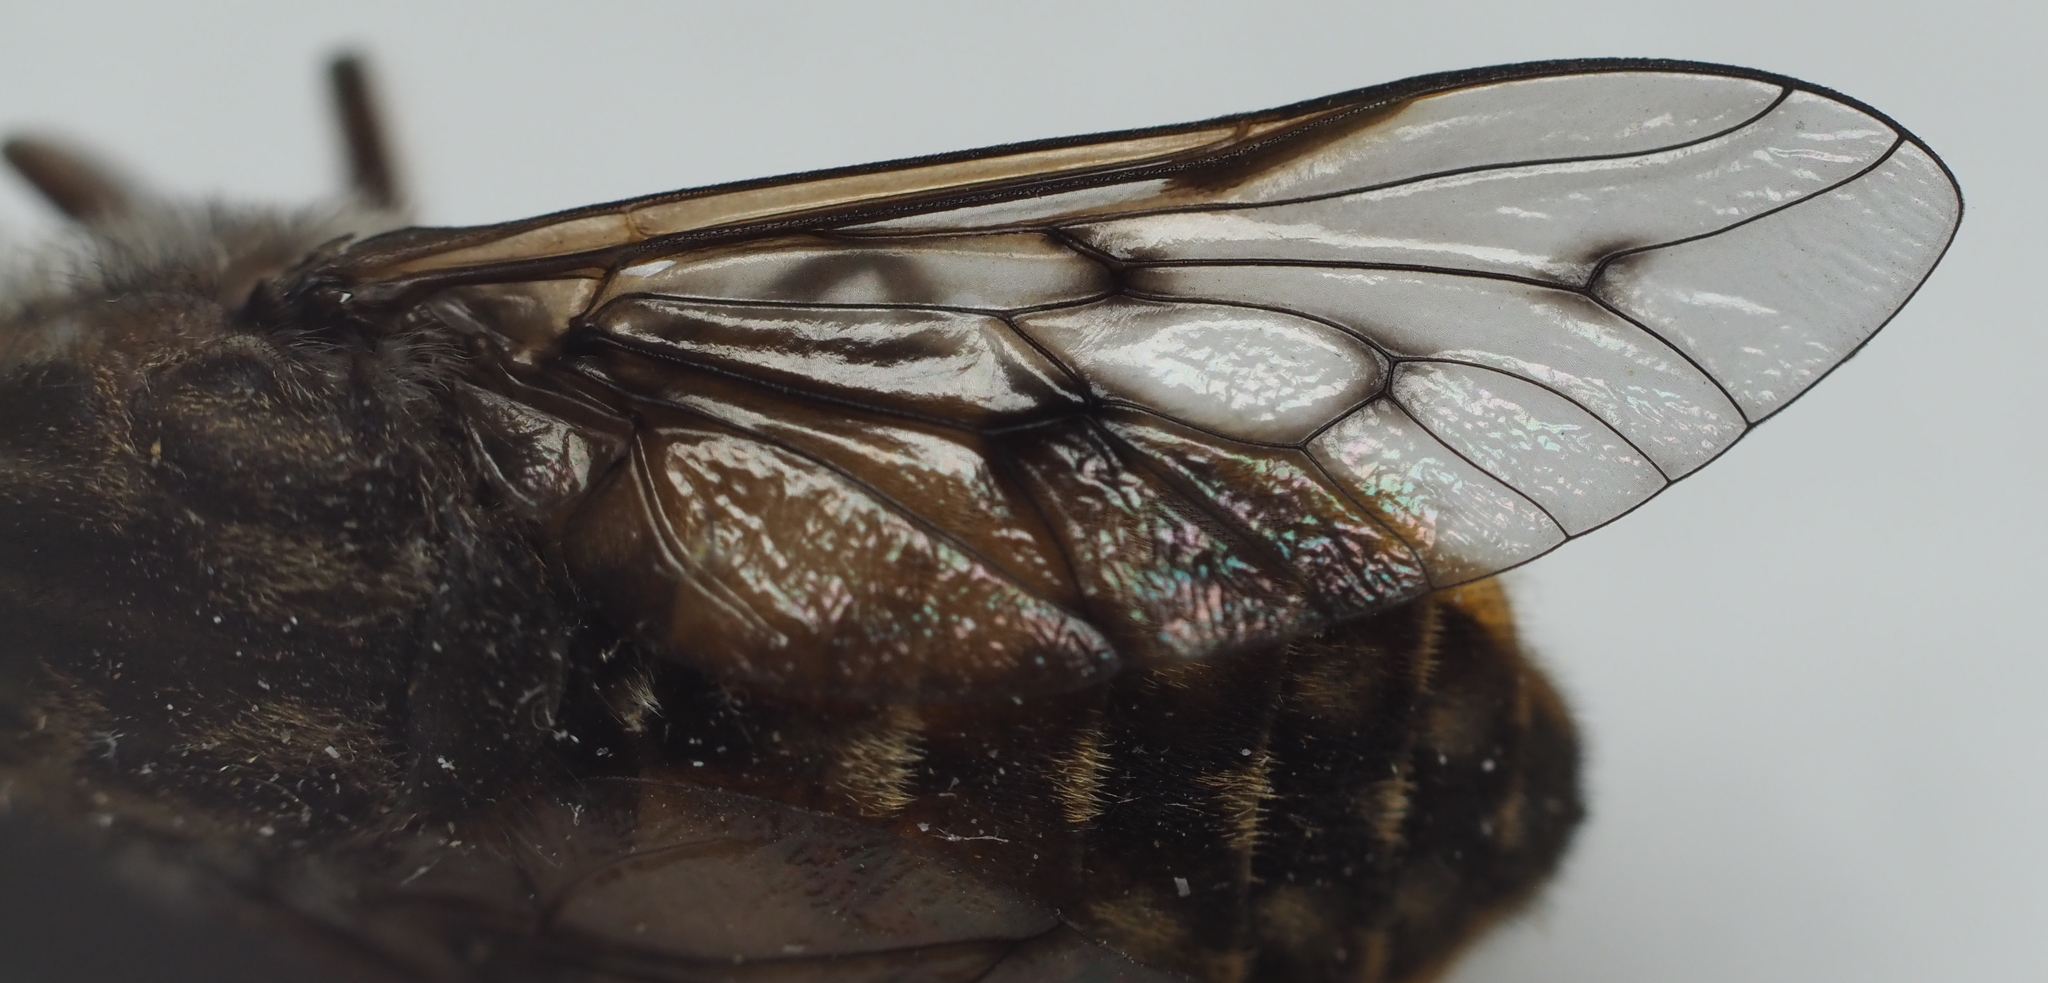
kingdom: Animalia
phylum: Arthropoda
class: Insecta
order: Diptera
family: Tabanidae
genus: Hybomitra
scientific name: Hybomitra lasiophthalma
